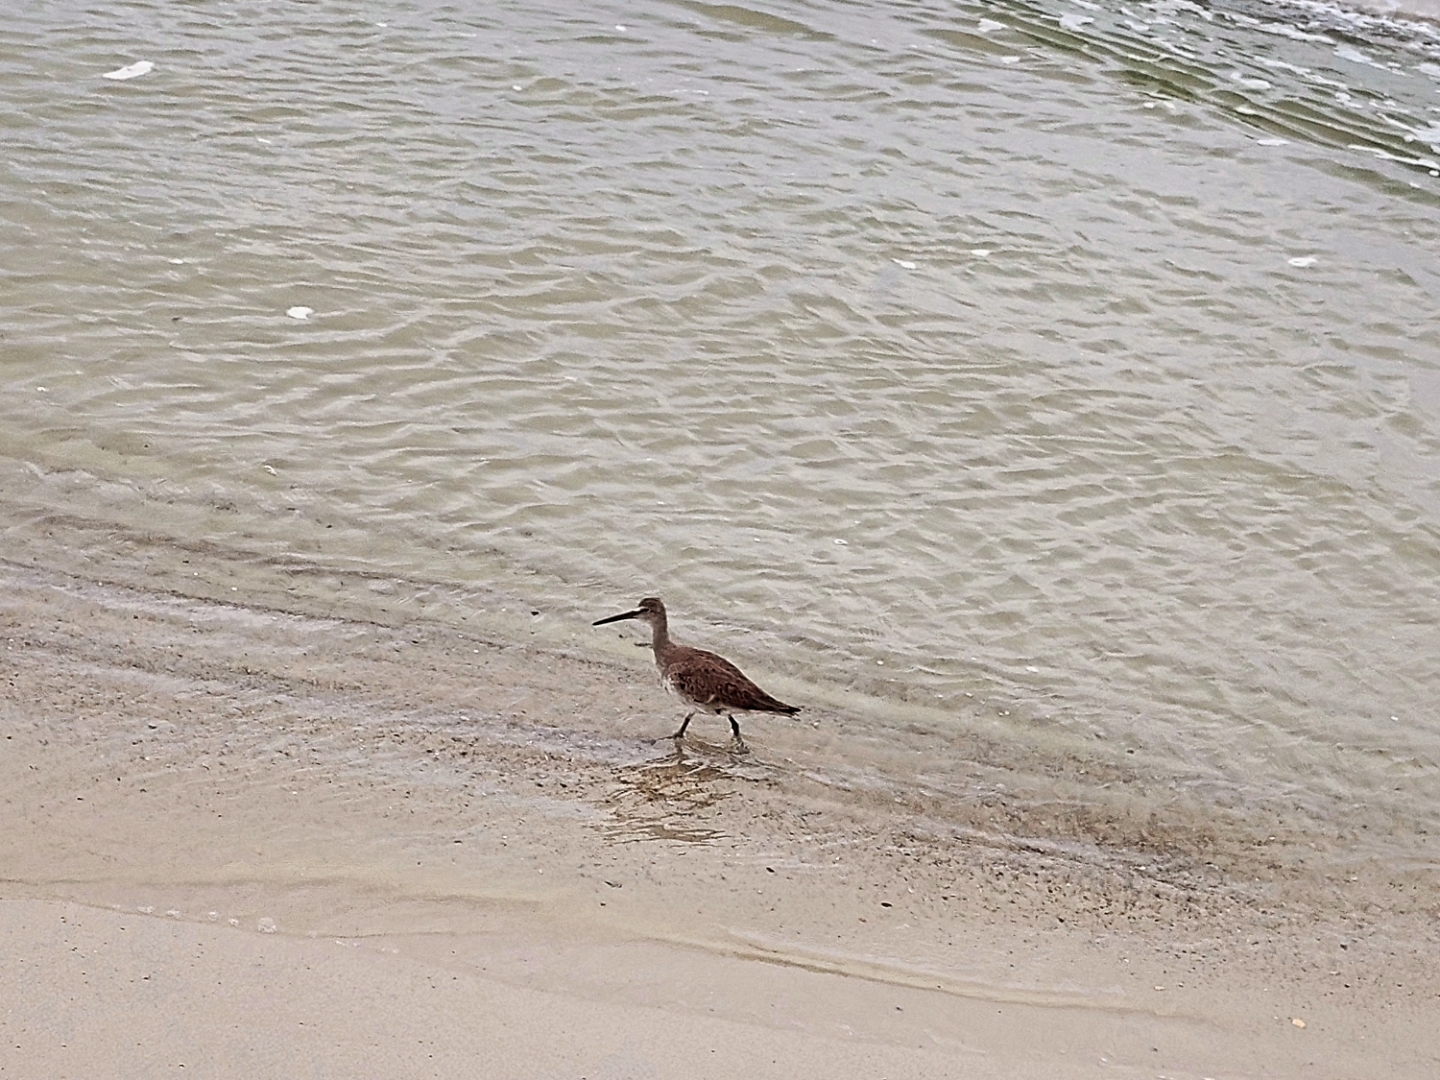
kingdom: Animalia
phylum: Chordata
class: Aves
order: Charadriiformes
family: Scolopacidae
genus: Tringa
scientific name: Tringa semipalmata
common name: Willet
